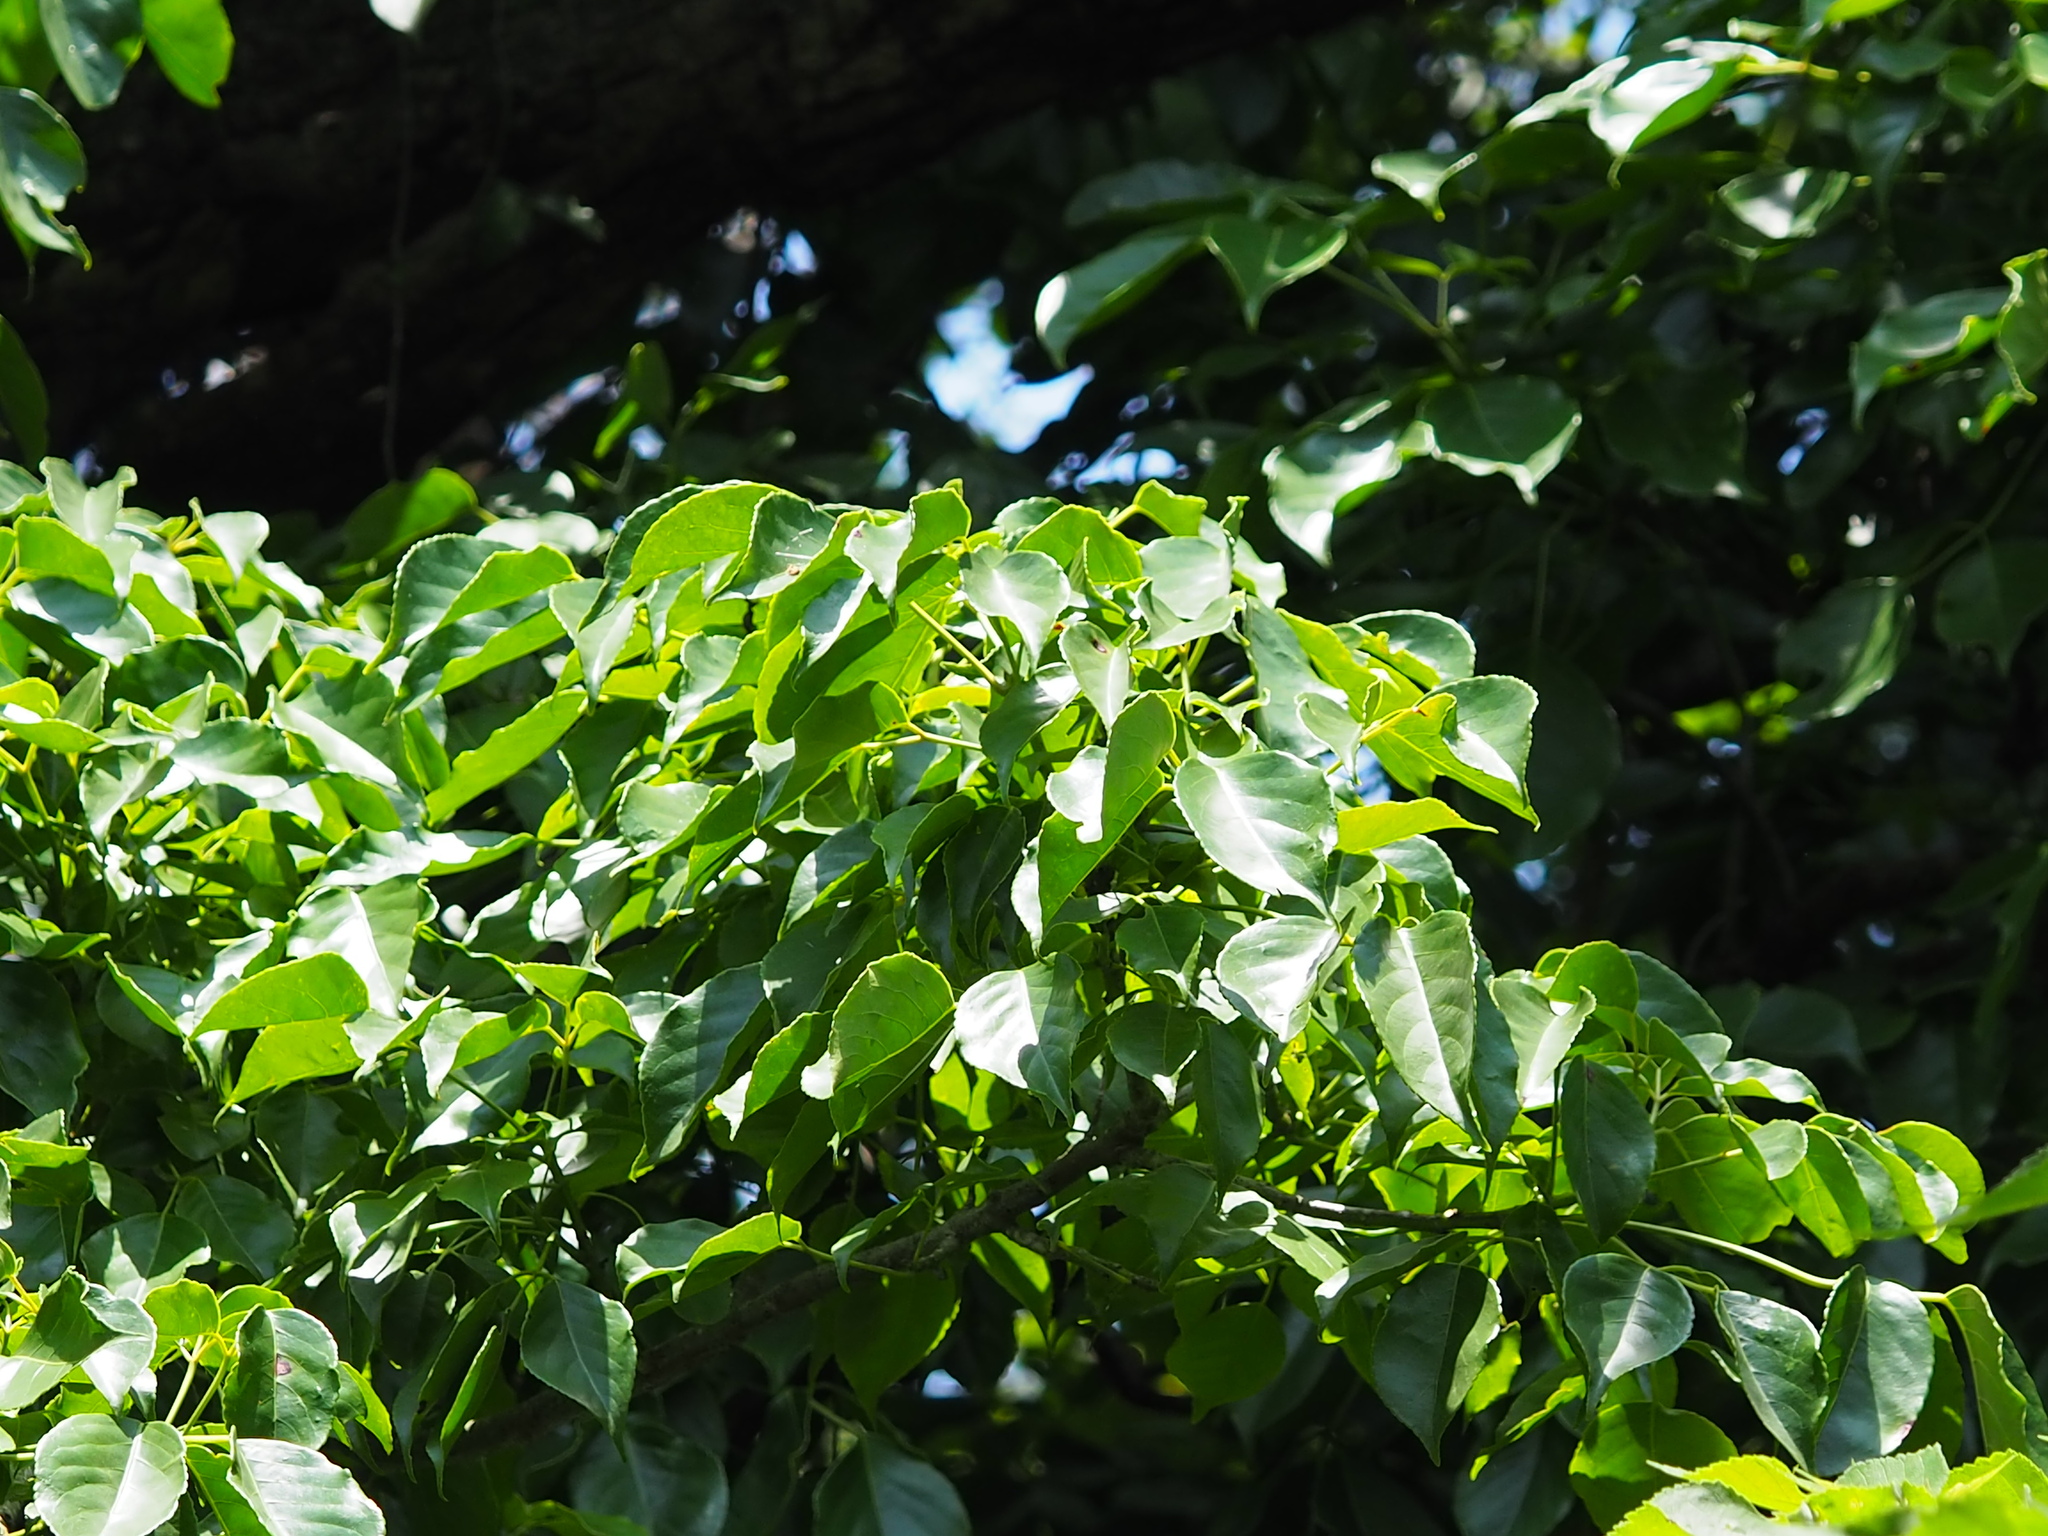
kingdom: Plantae
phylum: Tracheophyta
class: Magnoliopsida
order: Malpighiales
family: Phyllanthaceae
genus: Bischofia
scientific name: Bischofia javanica
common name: Javanese bishopwood
